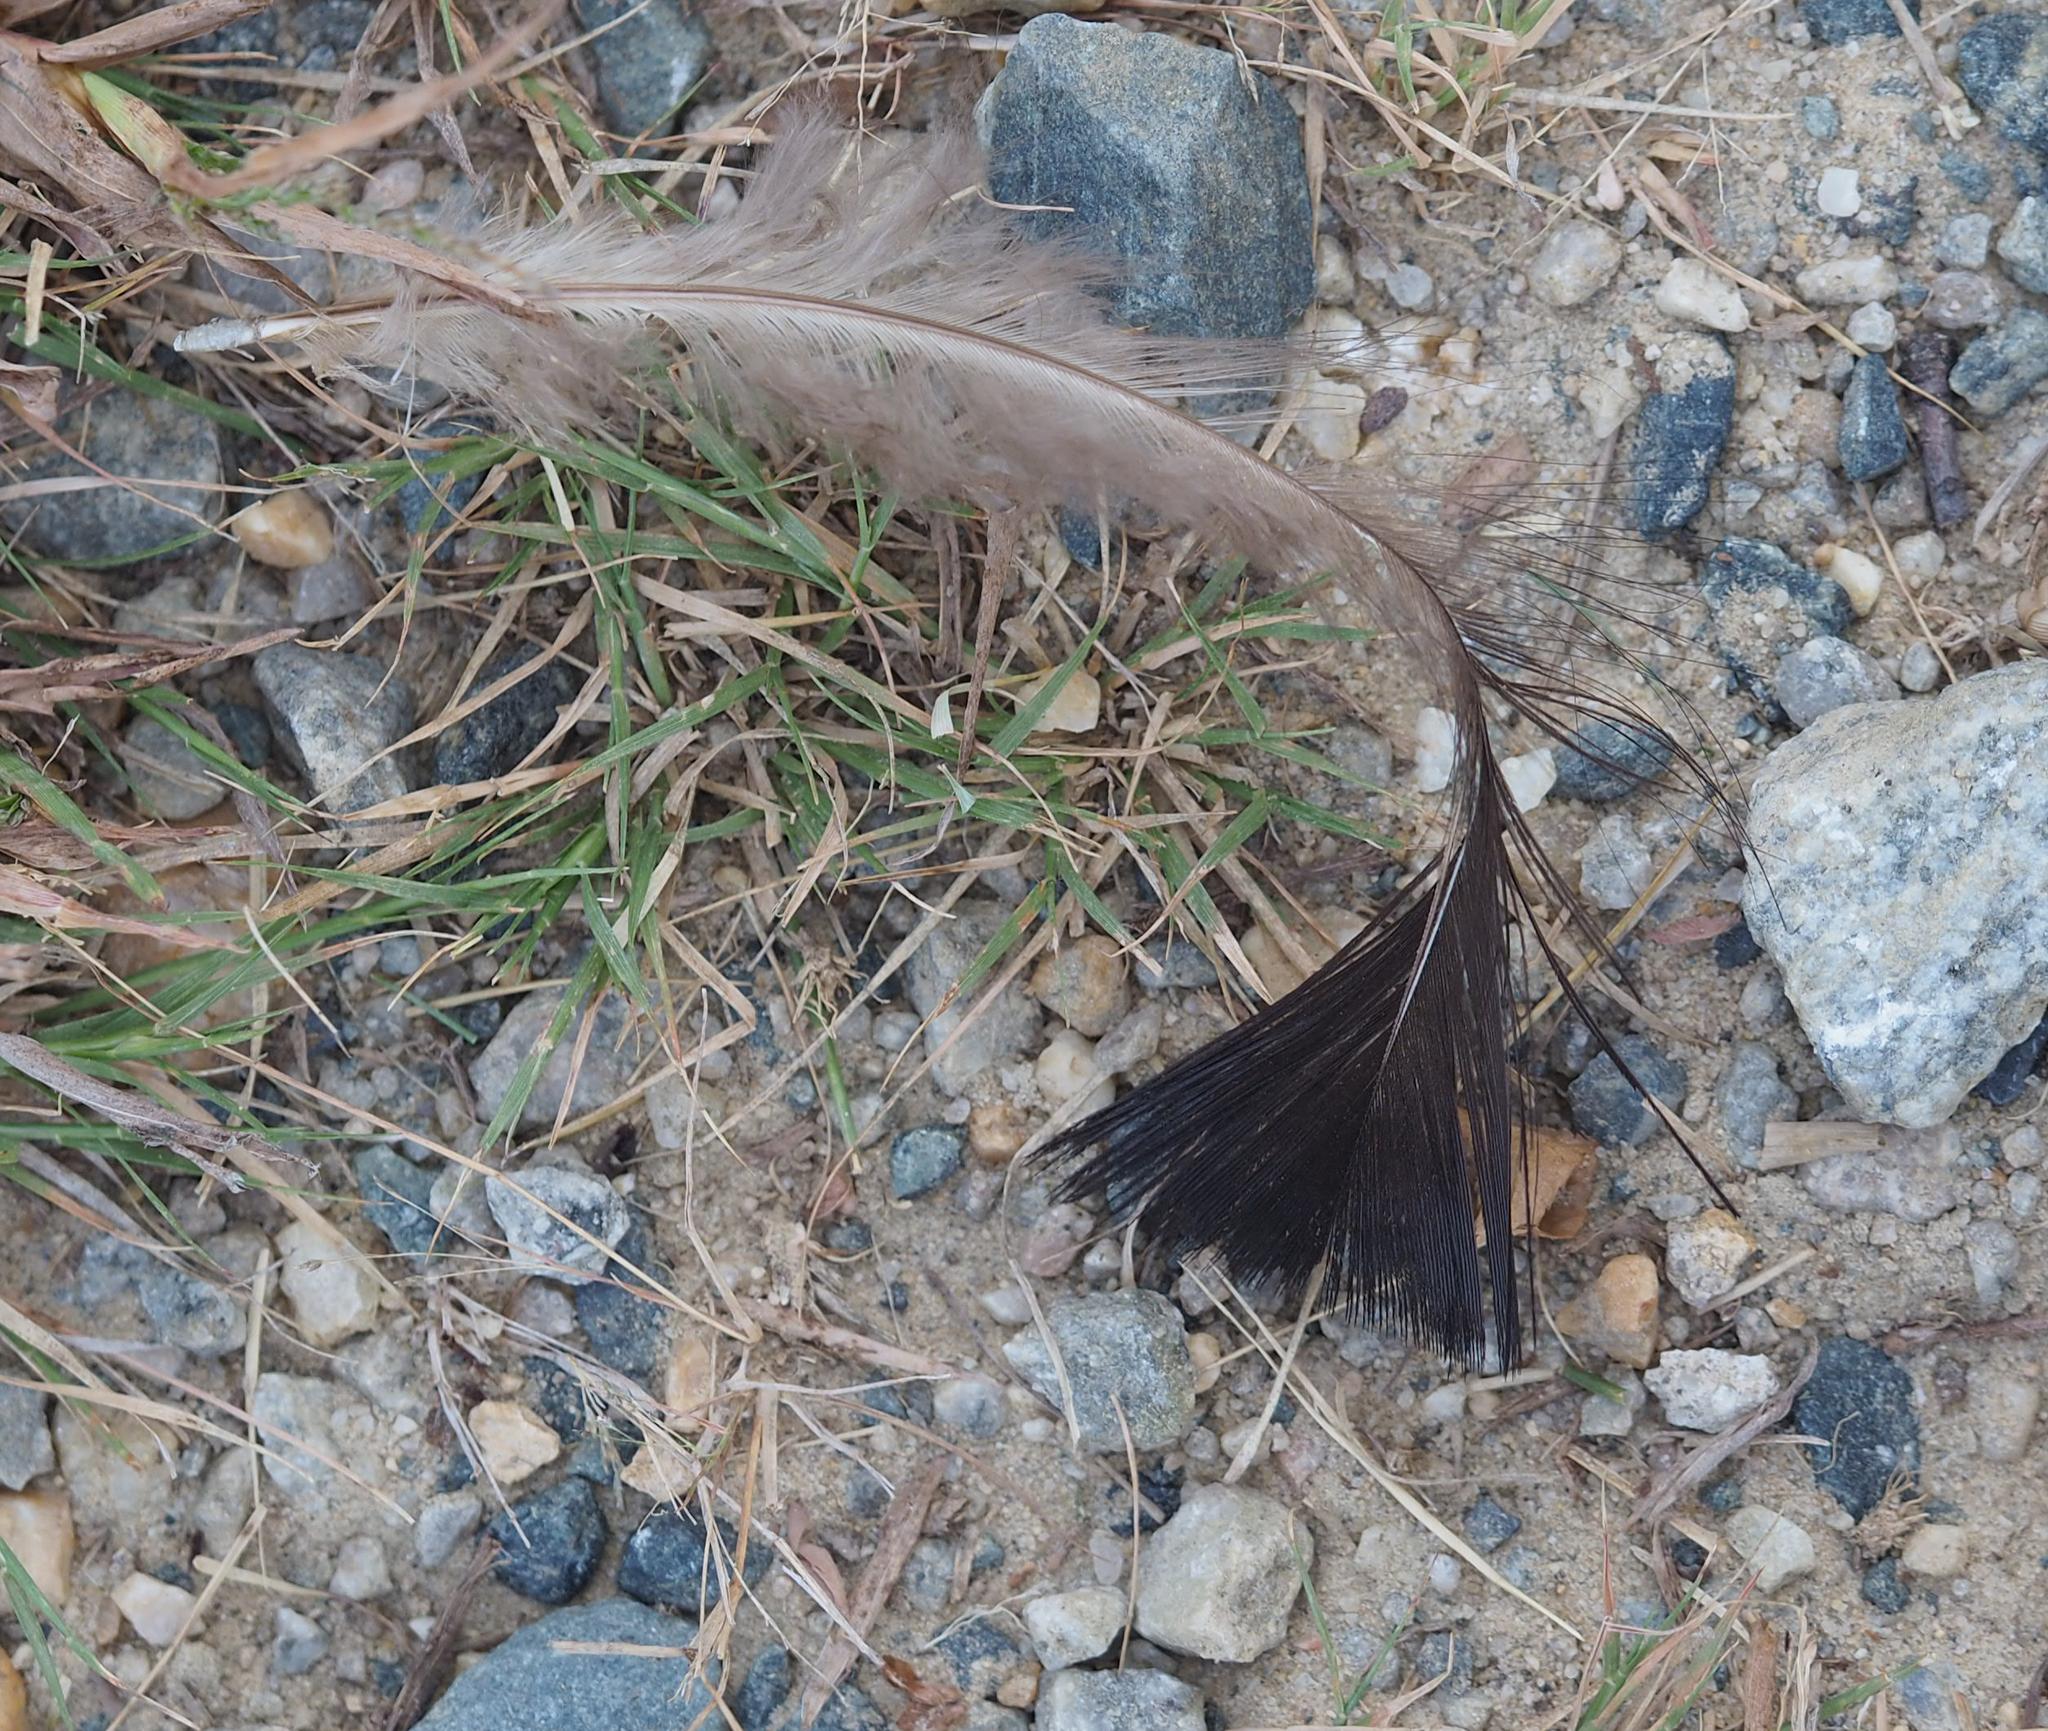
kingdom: Animalia
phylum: Chordata
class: Aves
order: Galliformes
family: Phasianidae
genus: Meleagris
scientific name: Meleagris gallopavo
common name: Wild turkey
